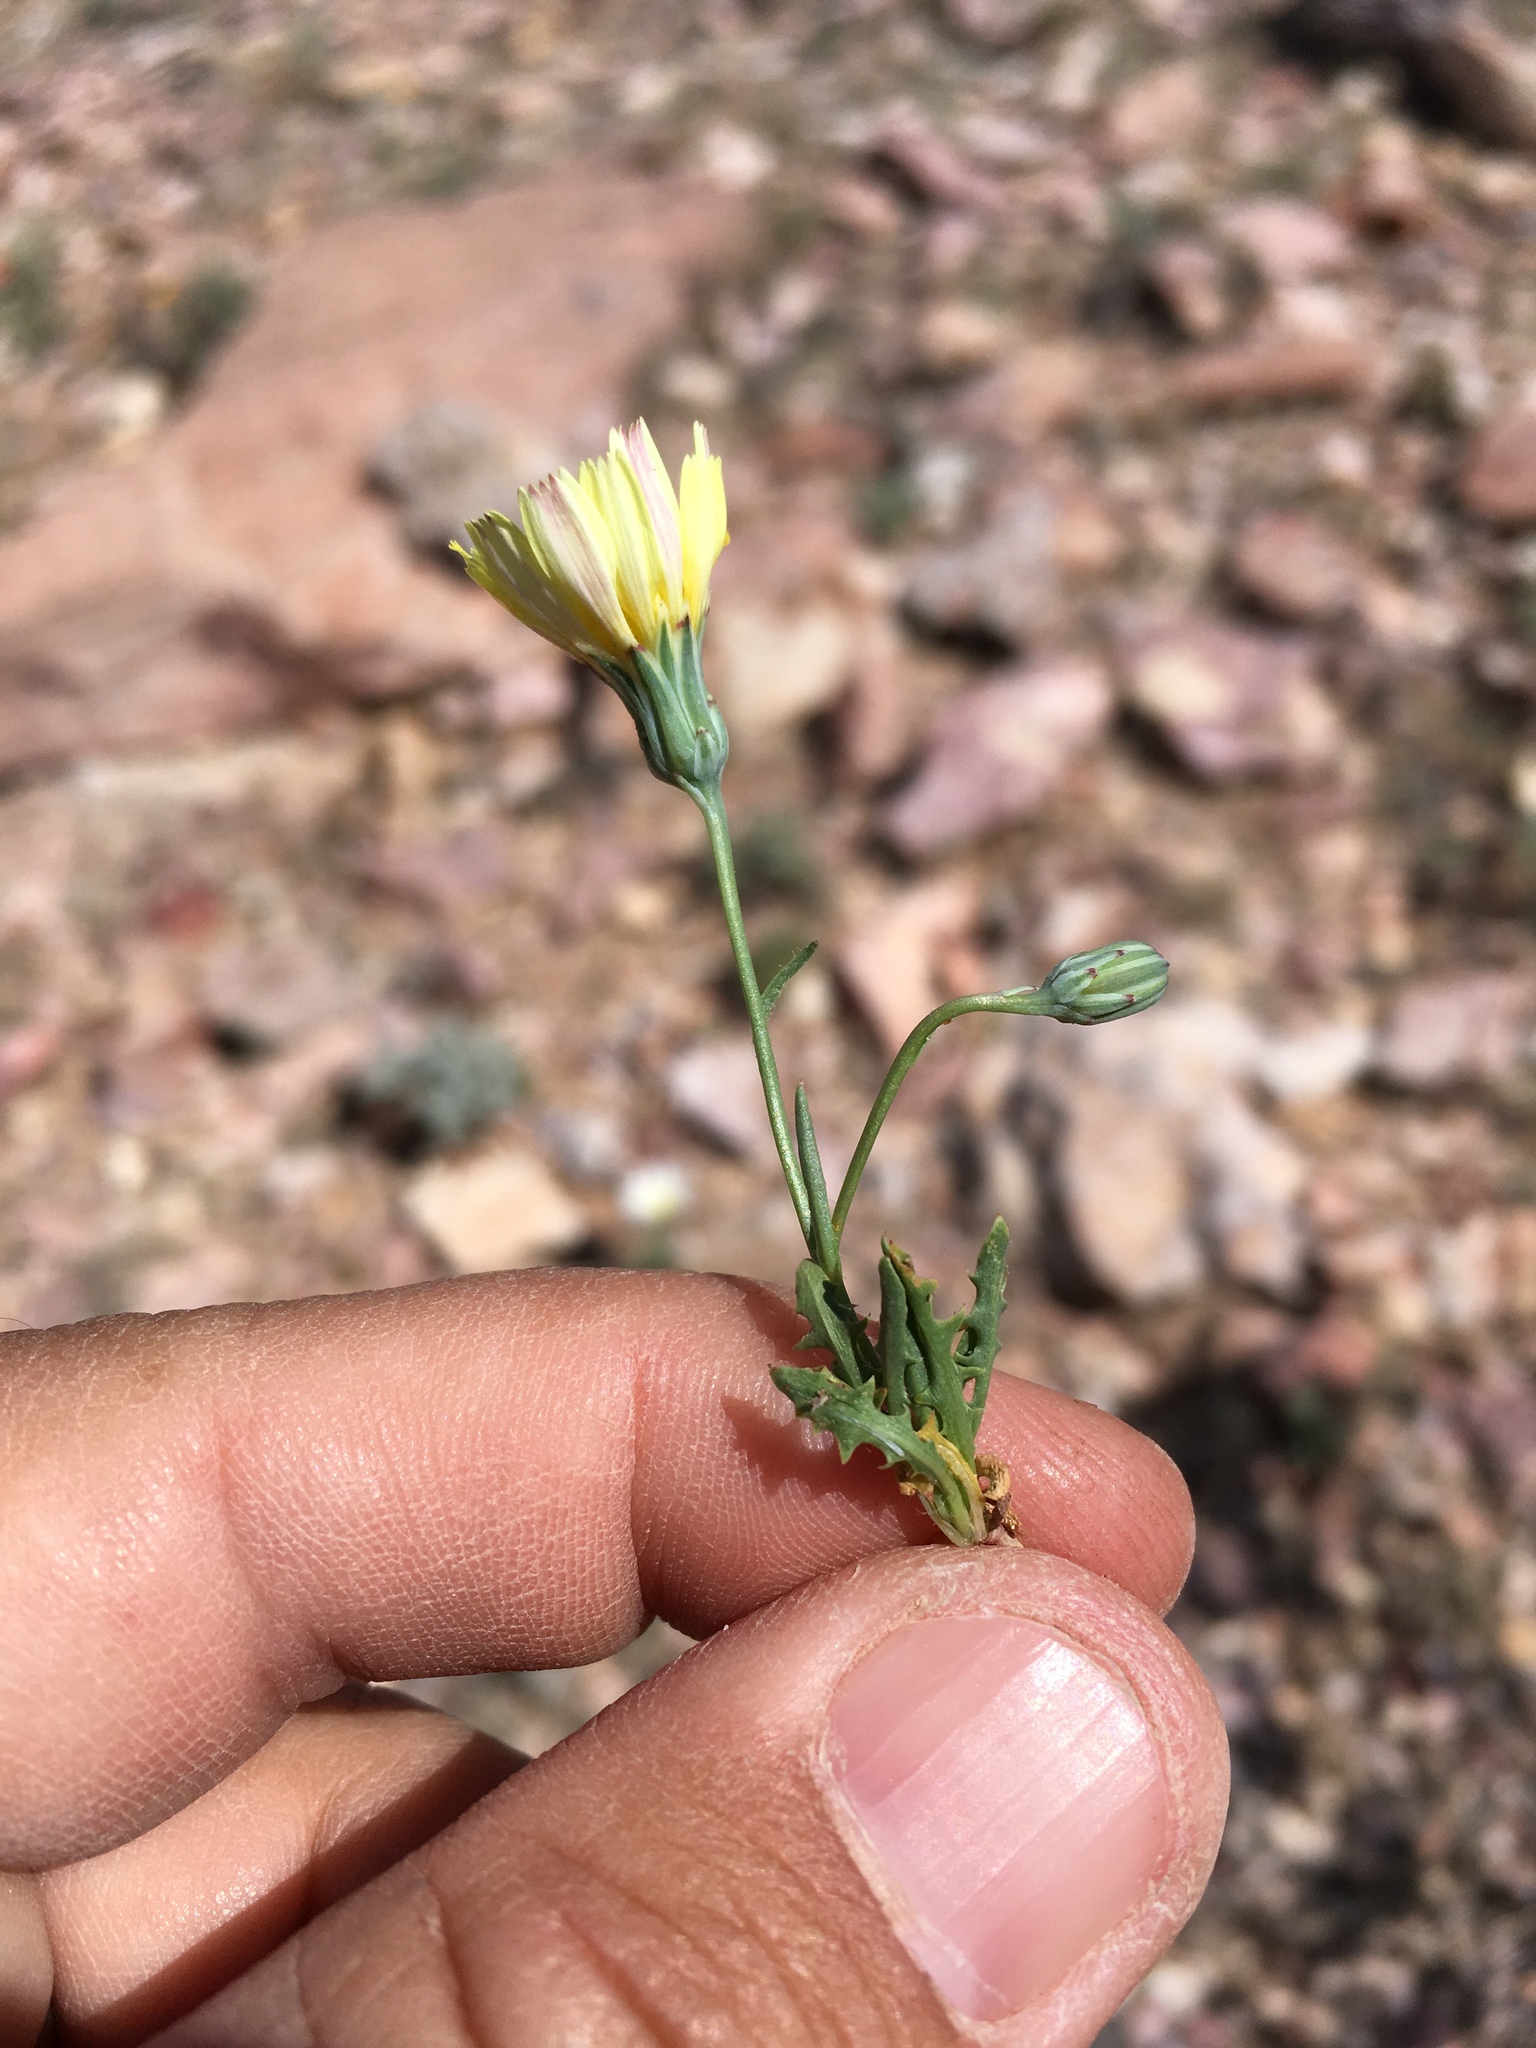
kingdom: Plantae
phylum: Tracheophyta
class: Magnoliopsida
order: Asterales
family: Asteraceae
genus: Malacothrix
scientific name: Malacothrix fendleri
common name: Fendler's desert-dandelion
